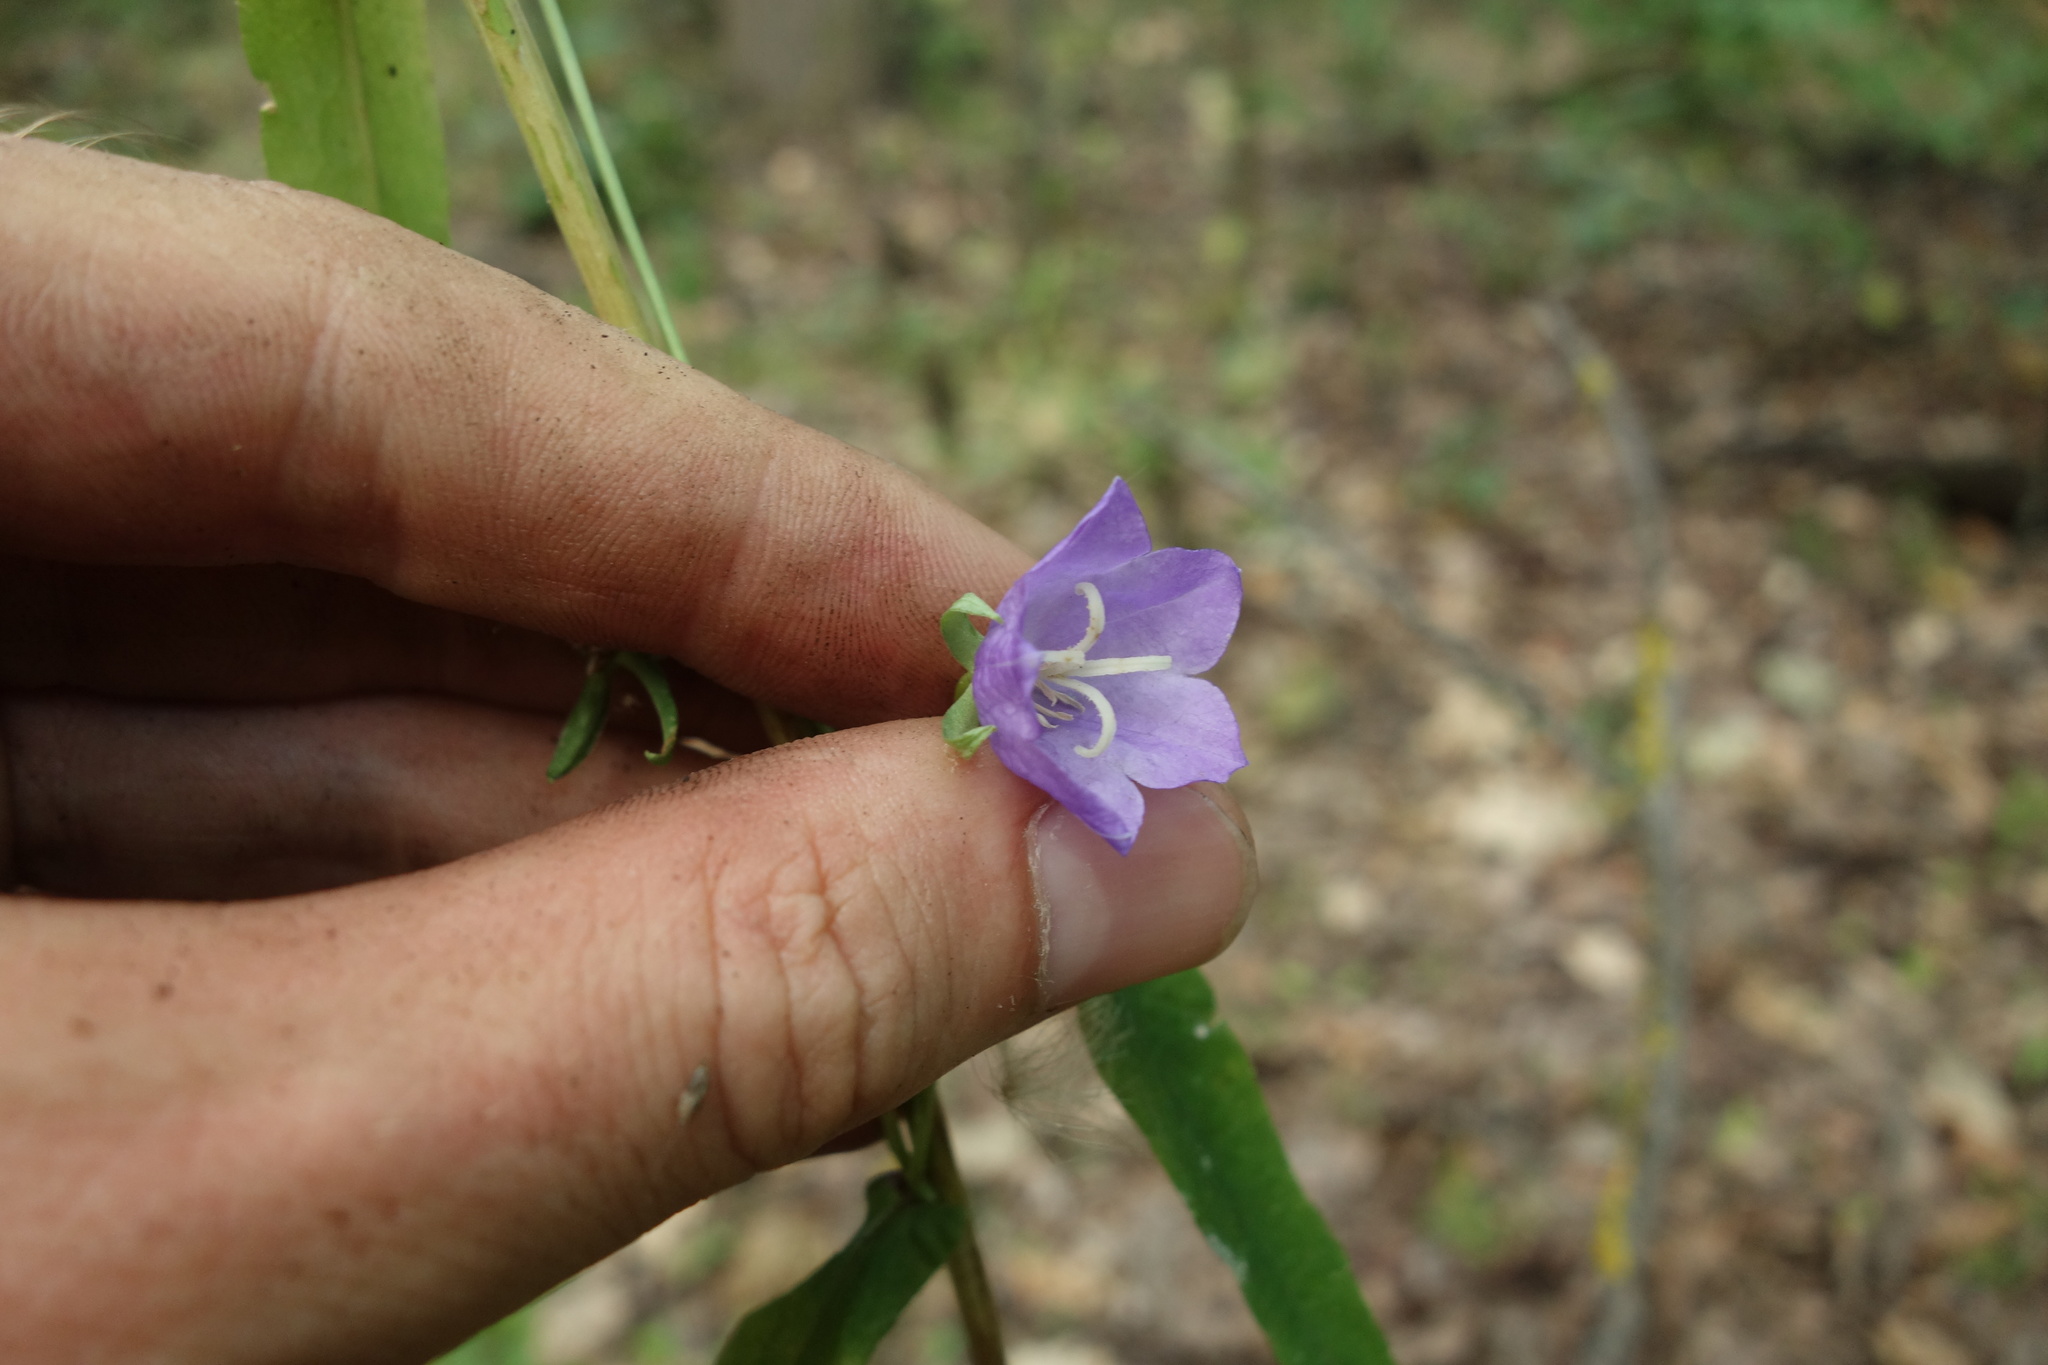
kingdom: Plantae
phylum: Tracheophyta
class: Magnoliopsida
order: Asterales
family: Campanulaceae
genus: Campanula
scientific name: Campanula persicifolia
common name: Peach-leaved bellflower
